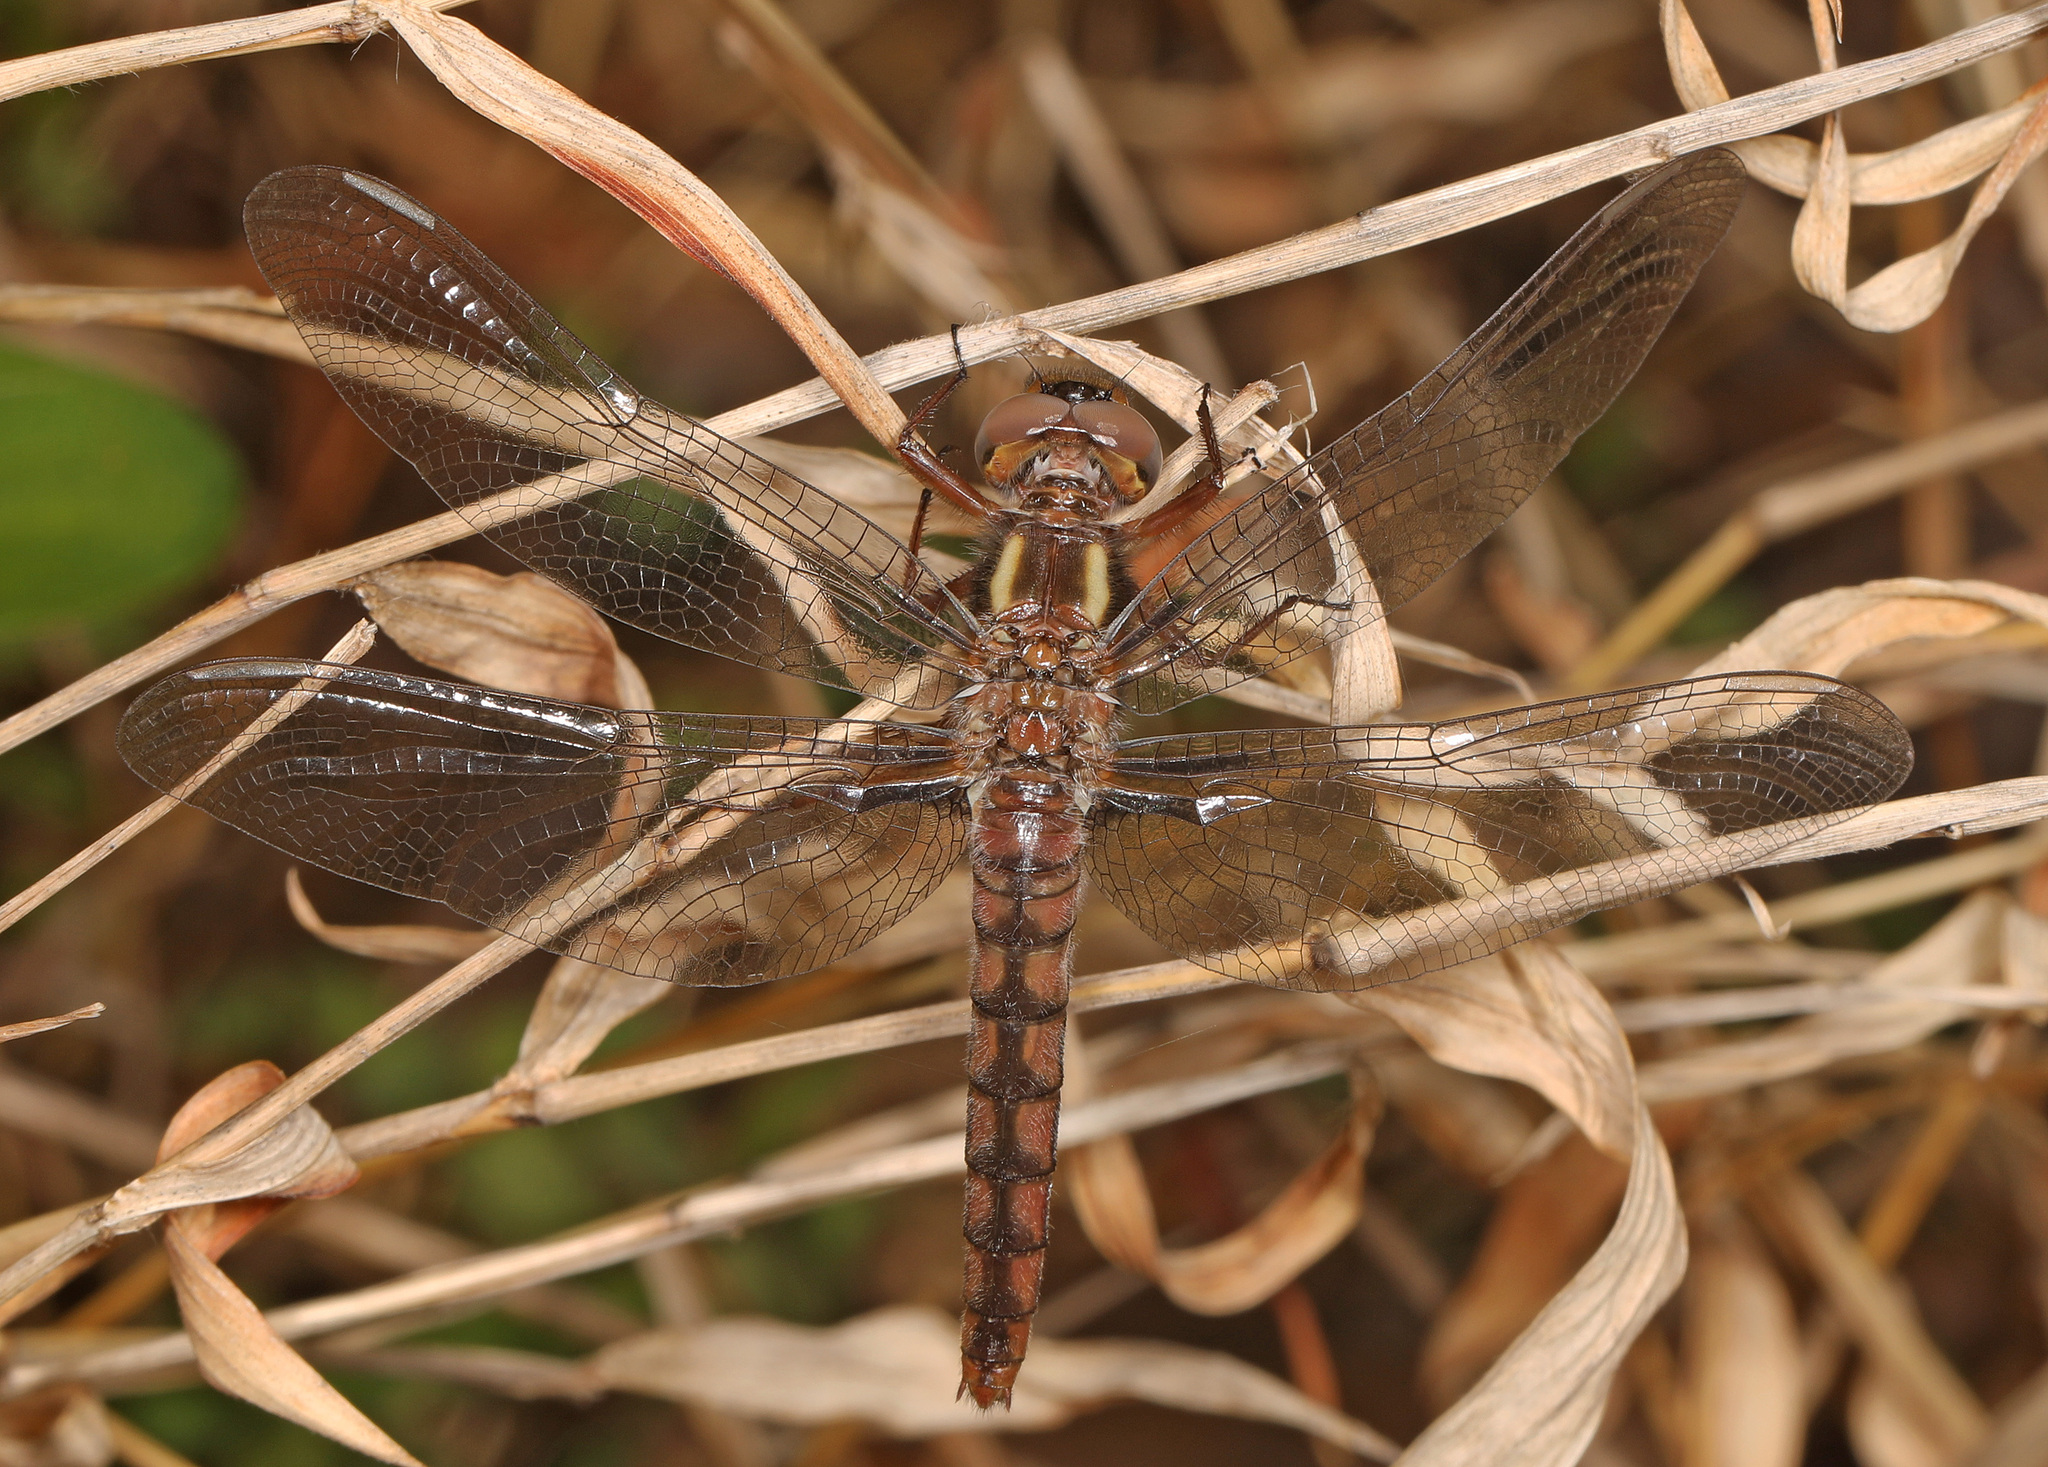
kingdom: Animalia
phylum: Arthropoda
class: Insecta
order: Odonata
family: Libellulidae
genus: Ladona
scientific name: Ladona deplanata
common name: Blue corporal
